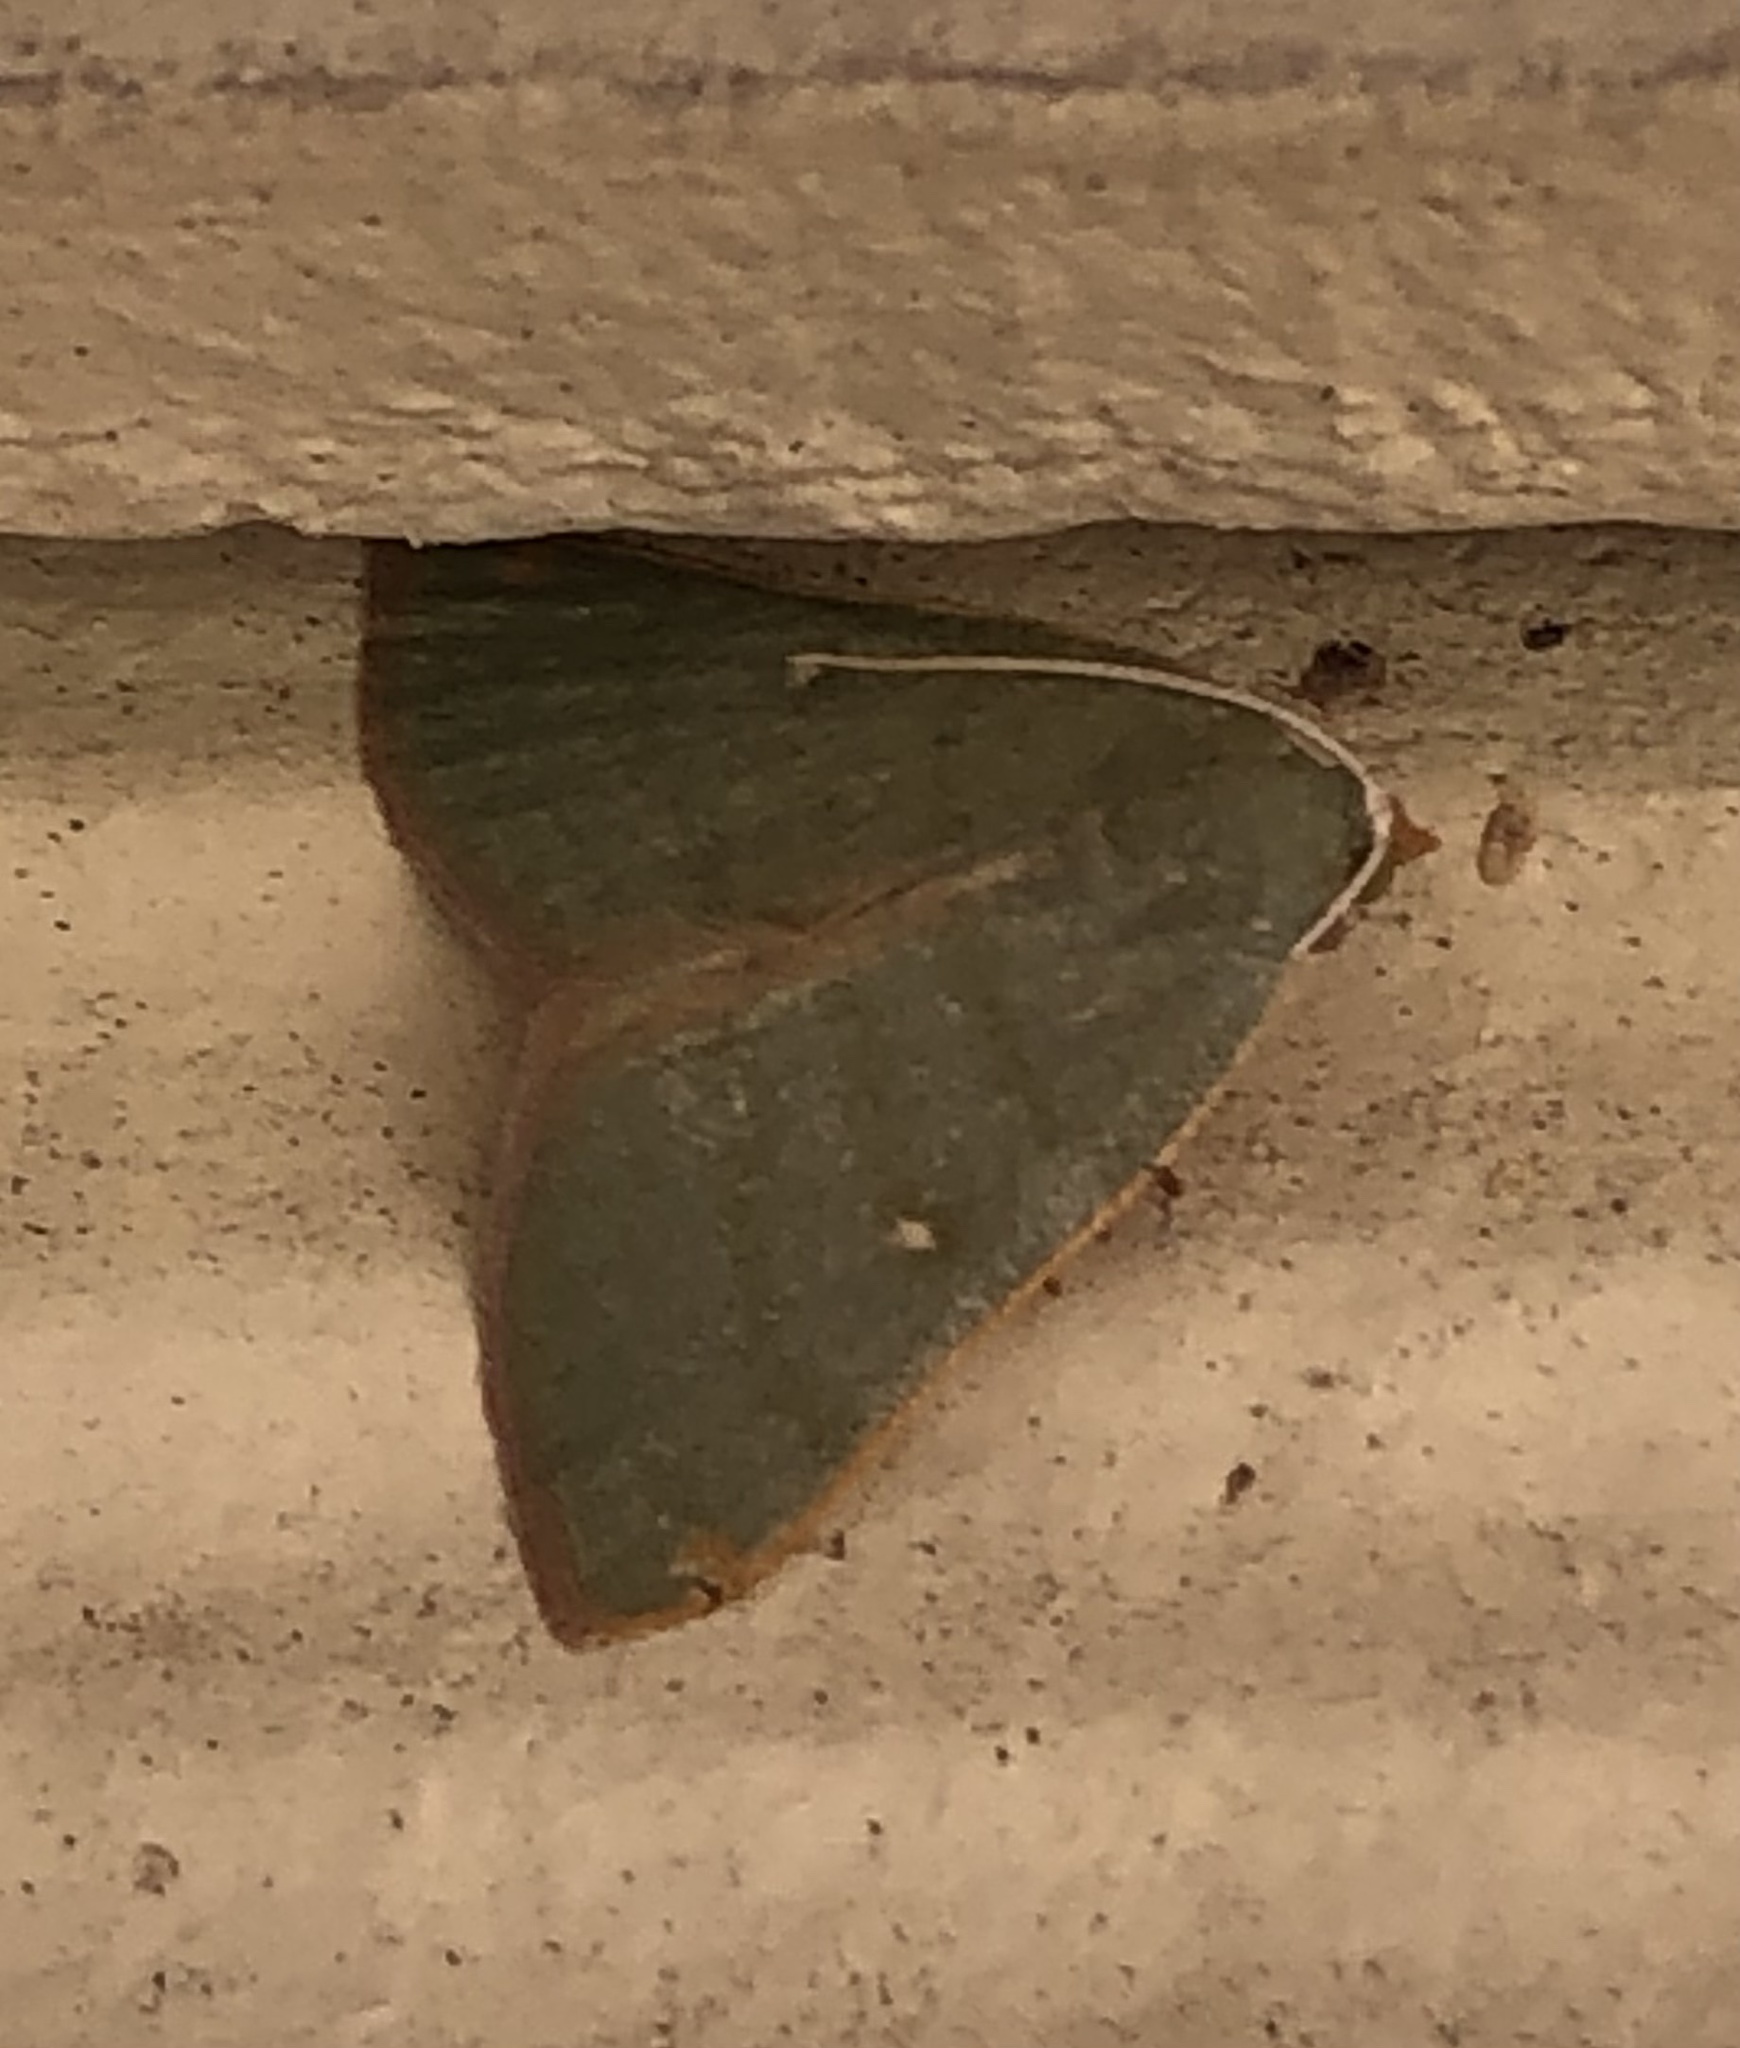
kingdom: Animalia
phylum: Arthropoda
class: Insecta
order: Lepidoptera
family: Geometridae
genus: Chloraspilates
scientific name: Chloraspilates bicoloraria
